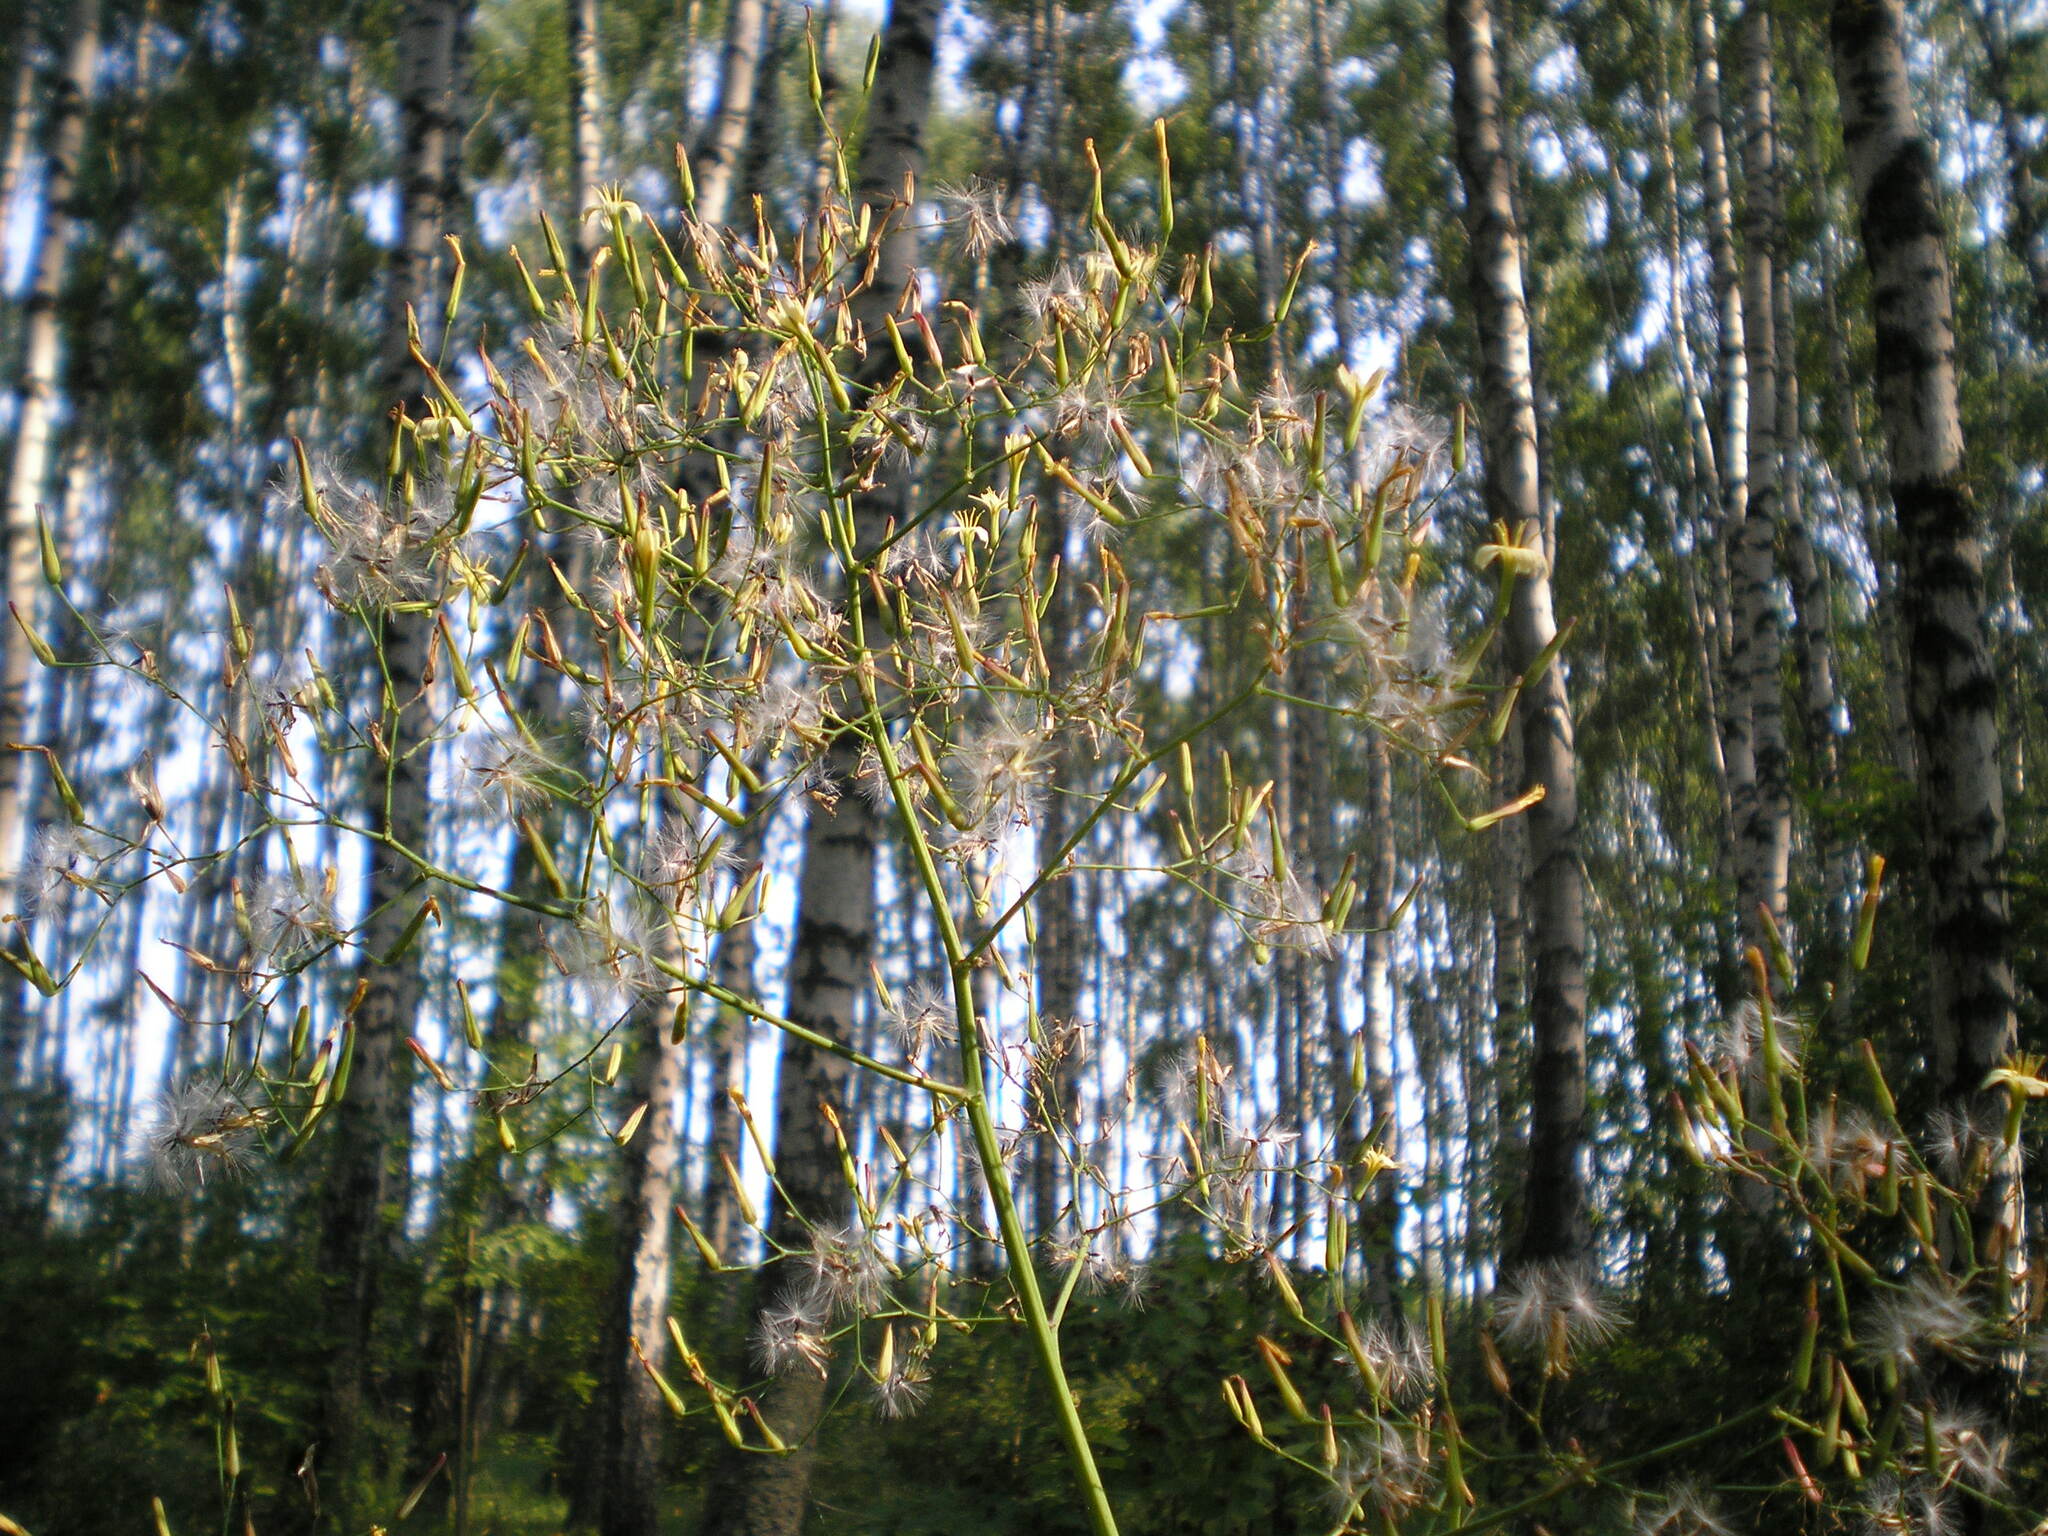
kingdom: Plantae
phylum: Tracheophyta
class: Magnoliopsida
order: Asterales
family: Asteraceae
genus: Mycelis
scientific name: Mycelis muralis
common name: Wall lettuce
